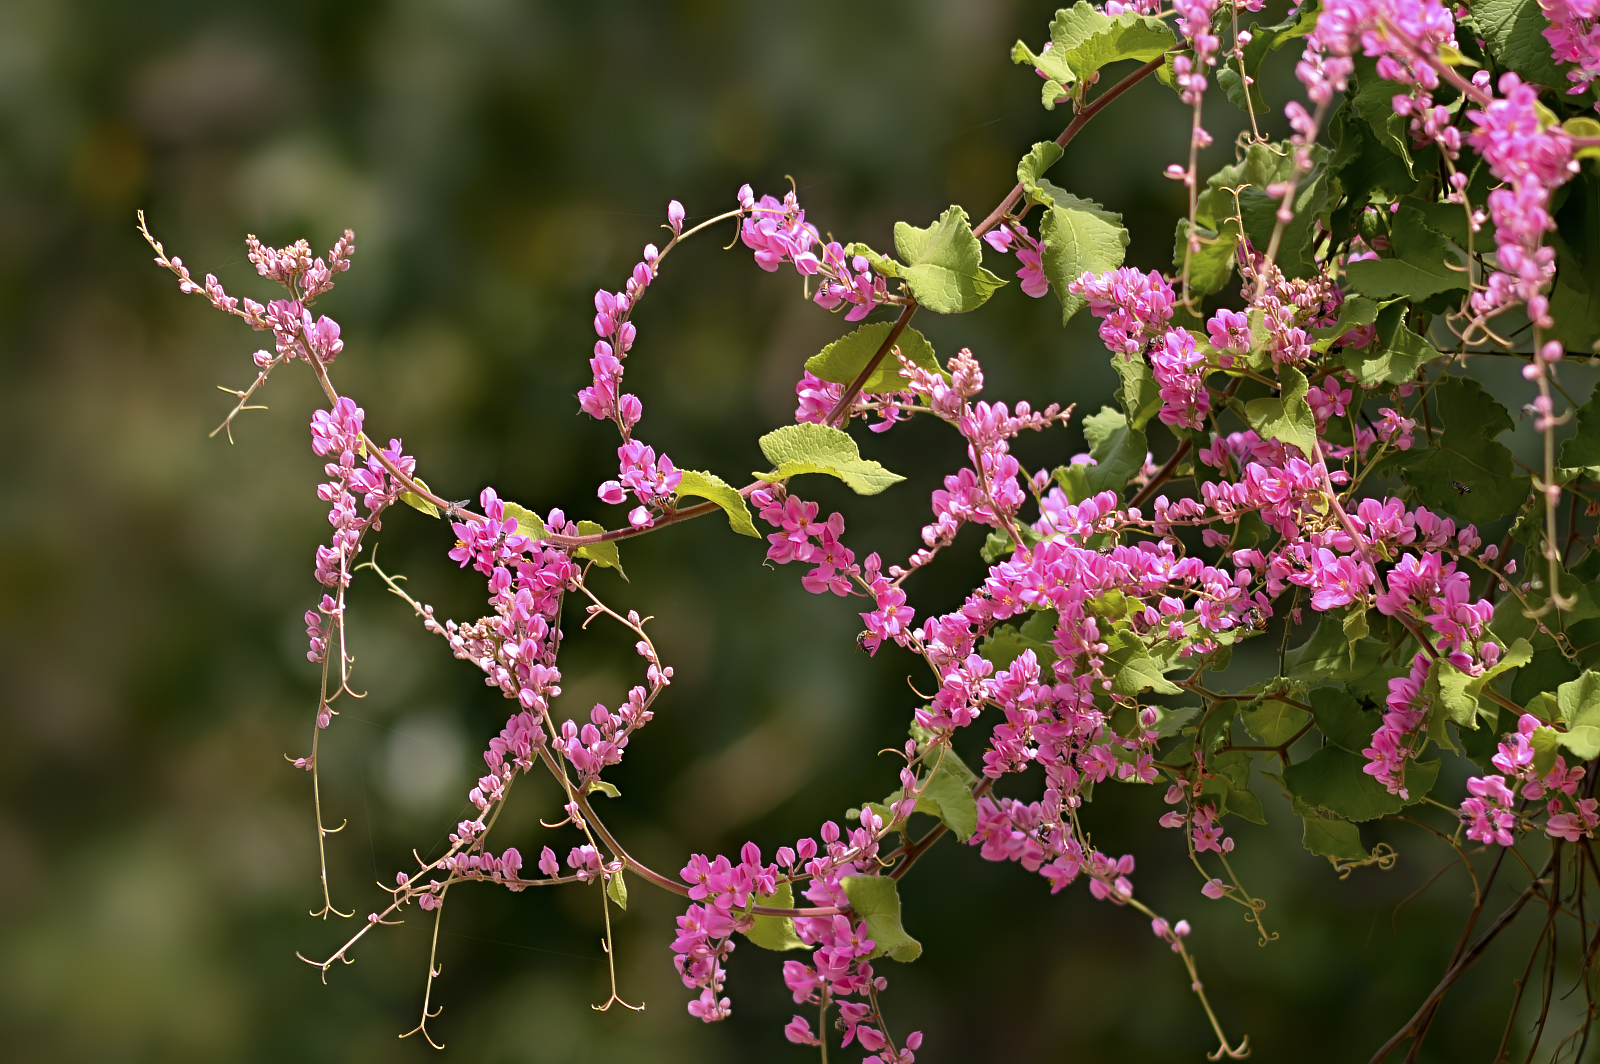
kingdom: Plantae
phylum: Tracheophyta
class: Magnoliopsida
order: Caryophyllales
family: Polygonaceae
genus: Antigonon
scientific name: Antigonon leptopus
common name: Coral vine
